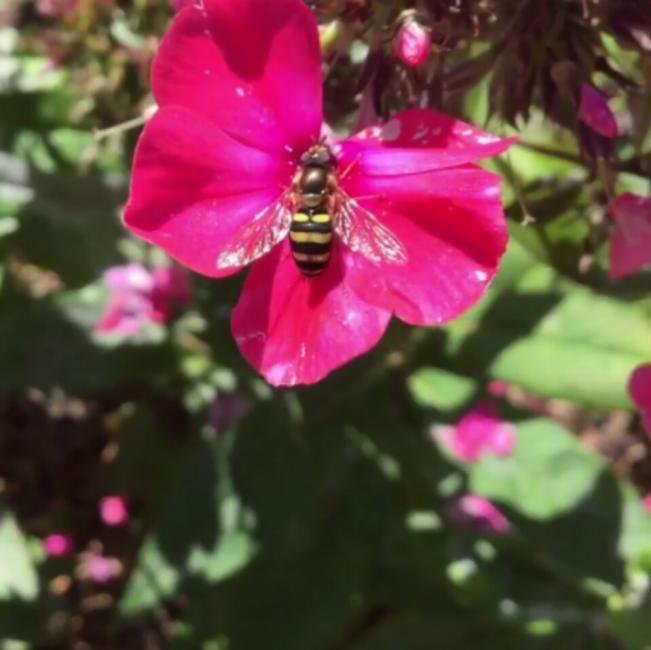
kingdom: Animalia
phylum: Arthropoda
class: Insecta
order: Diptera
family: Syrphidae
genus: Eupeodes
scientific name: Eupeodes
